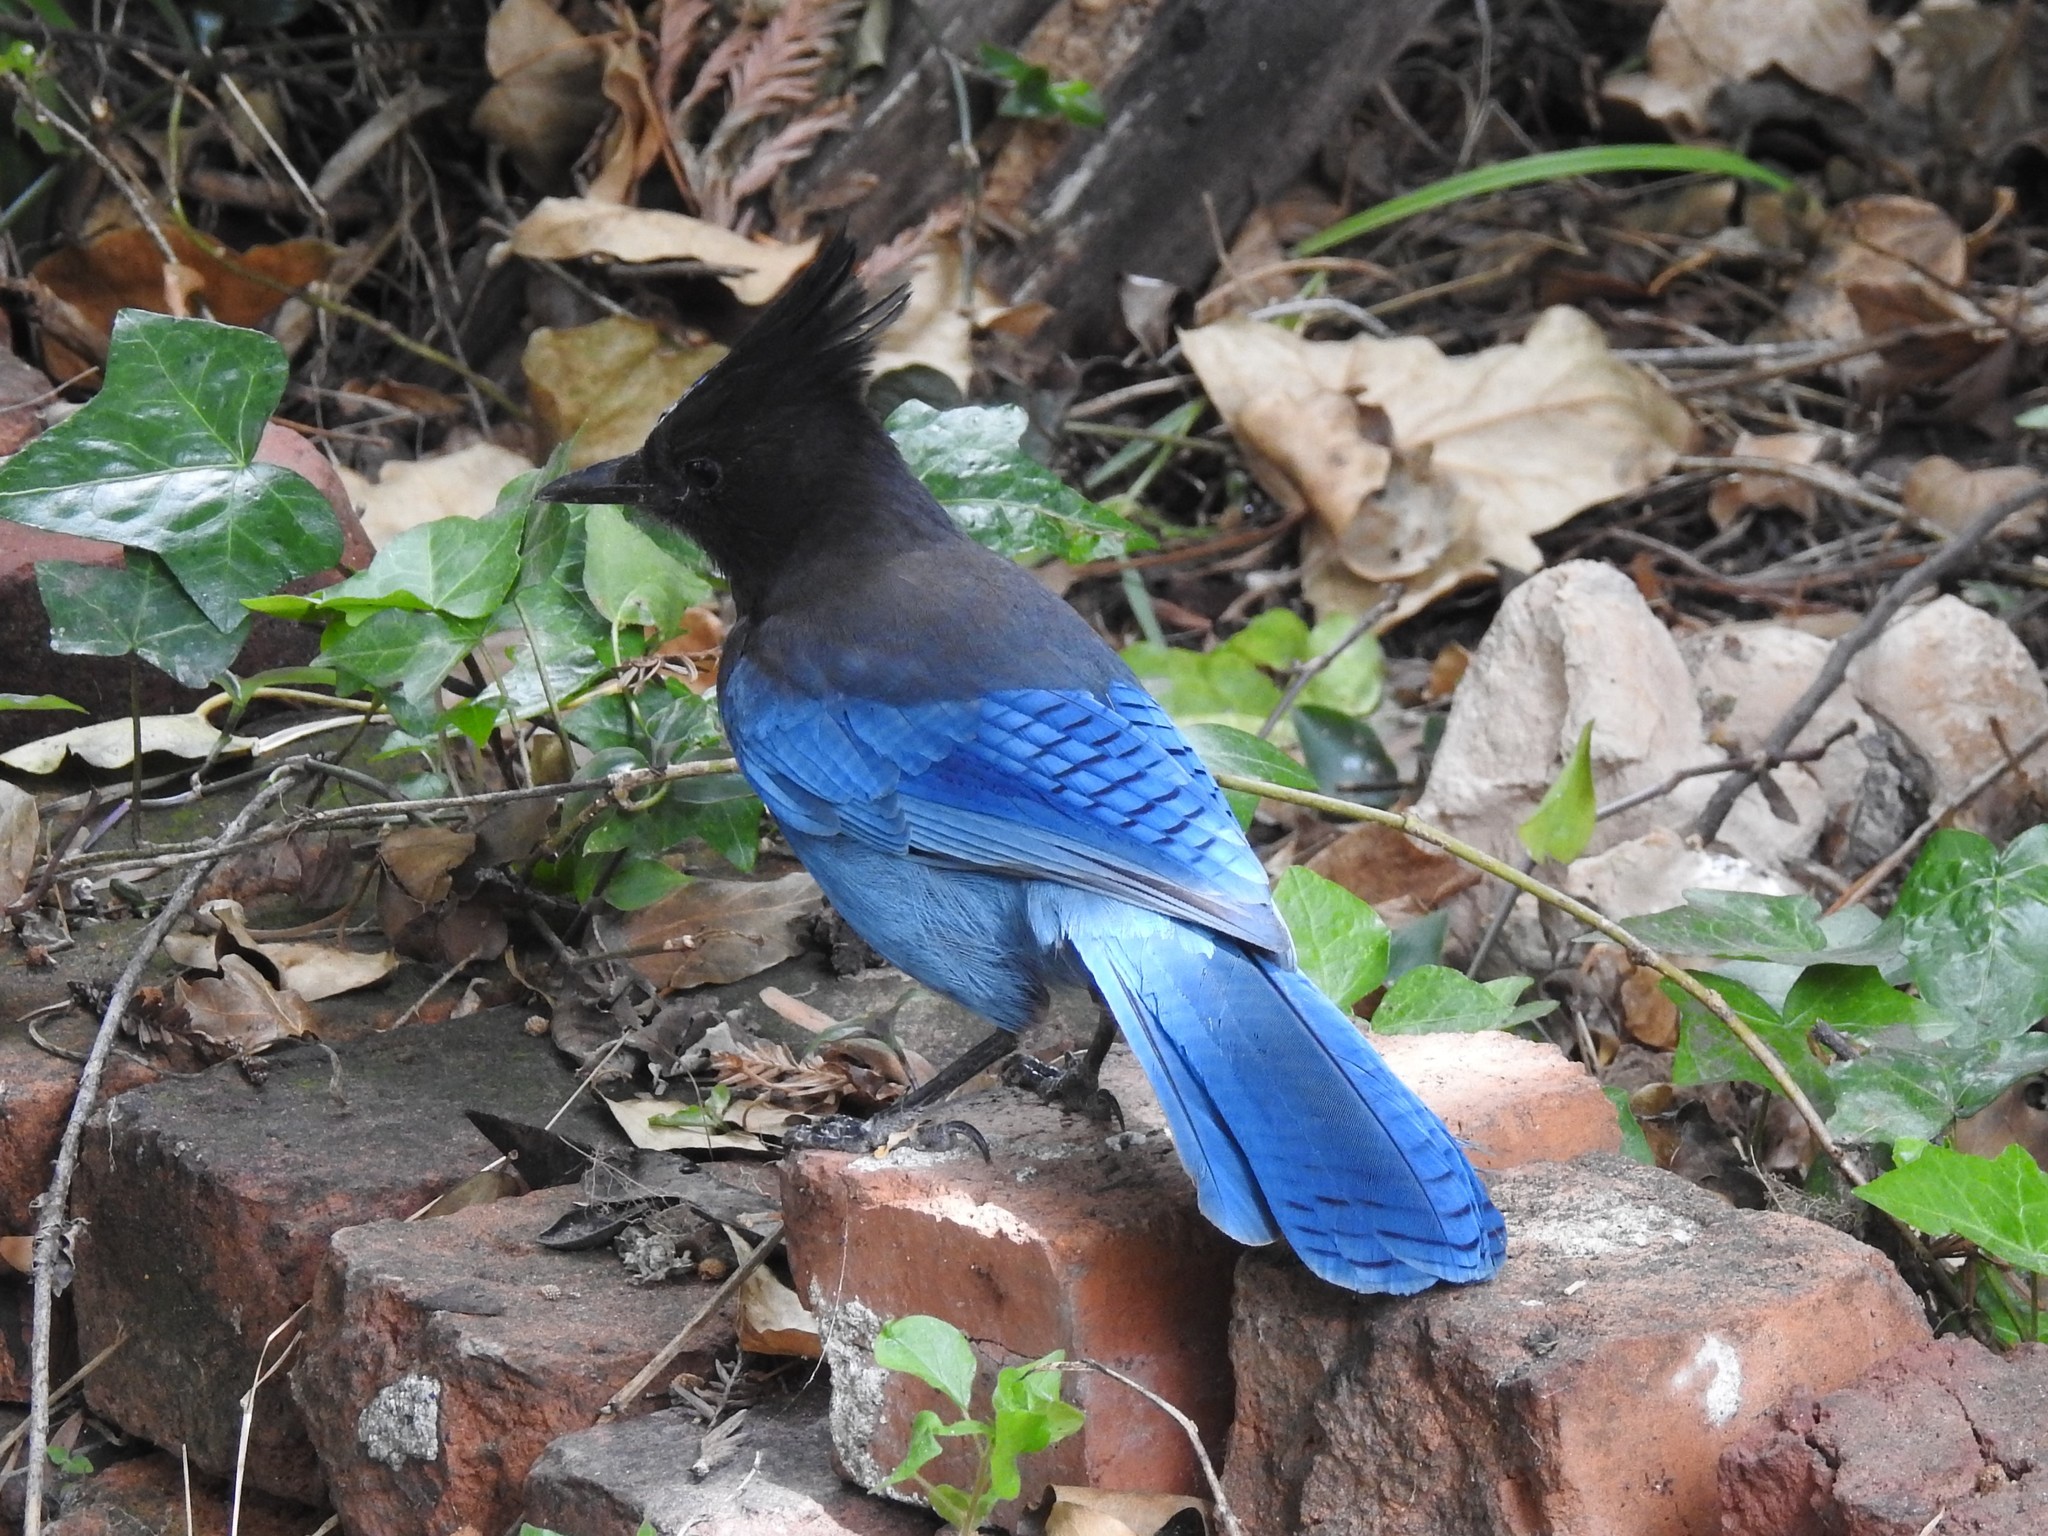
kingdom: Animalia
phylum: Chordata
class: Aves
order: Passeriformes
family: Corvidae
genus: Cyanocitta
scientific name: Cyanocitta stelleri
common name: Steller's jay
